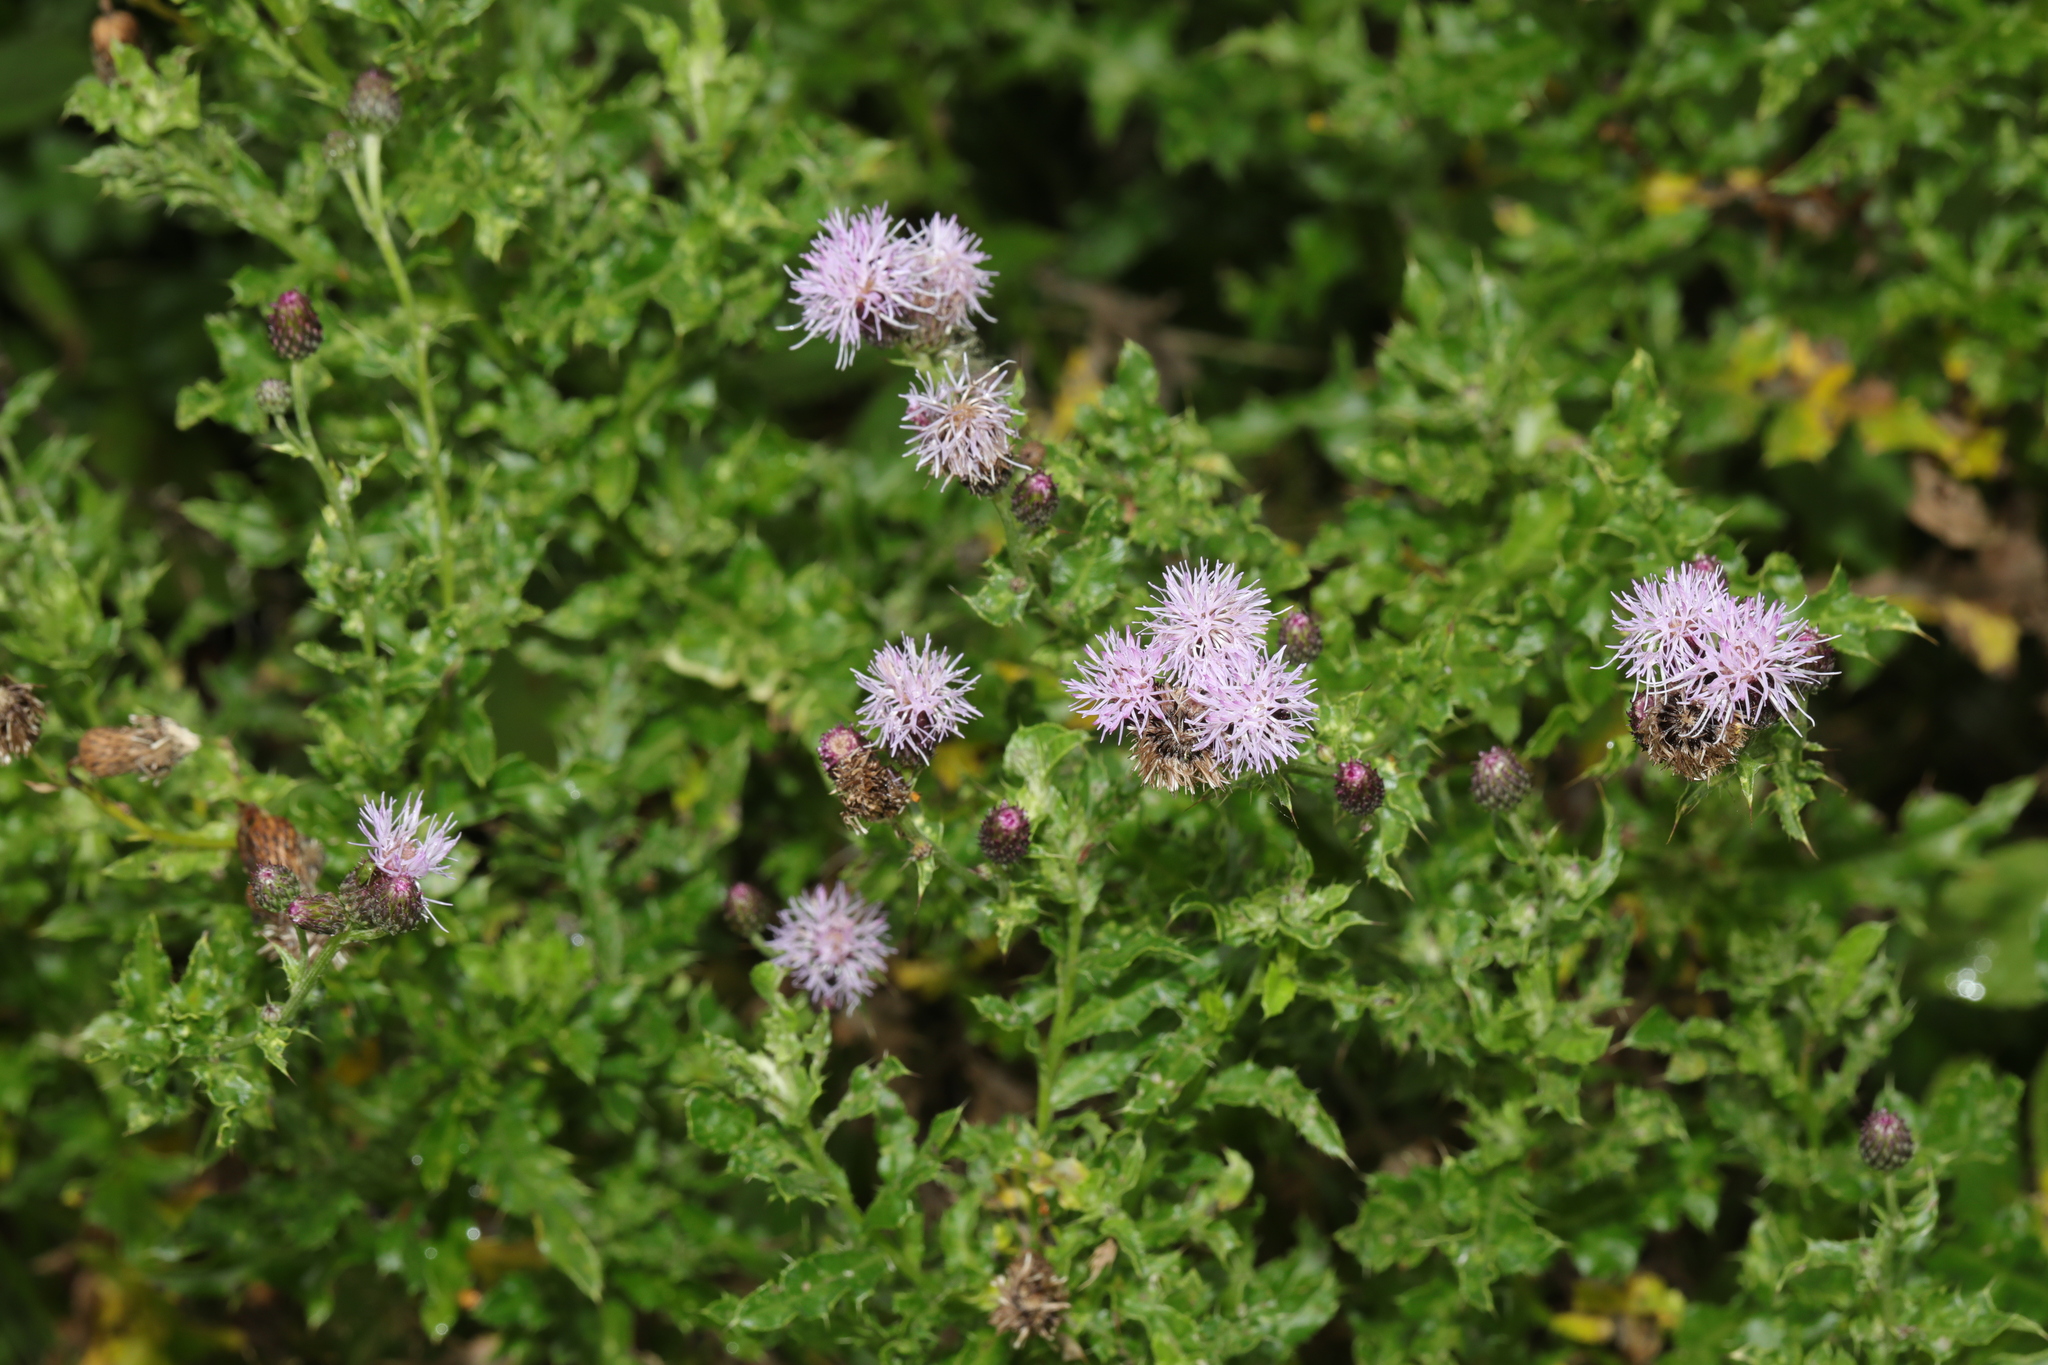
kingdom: Plantae
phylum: Tracheophyta
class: Magnoliopsida
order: Asterales
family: Asteraceae
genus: Cirsium
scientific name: Cirsium arvense
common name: Creeping thistle
